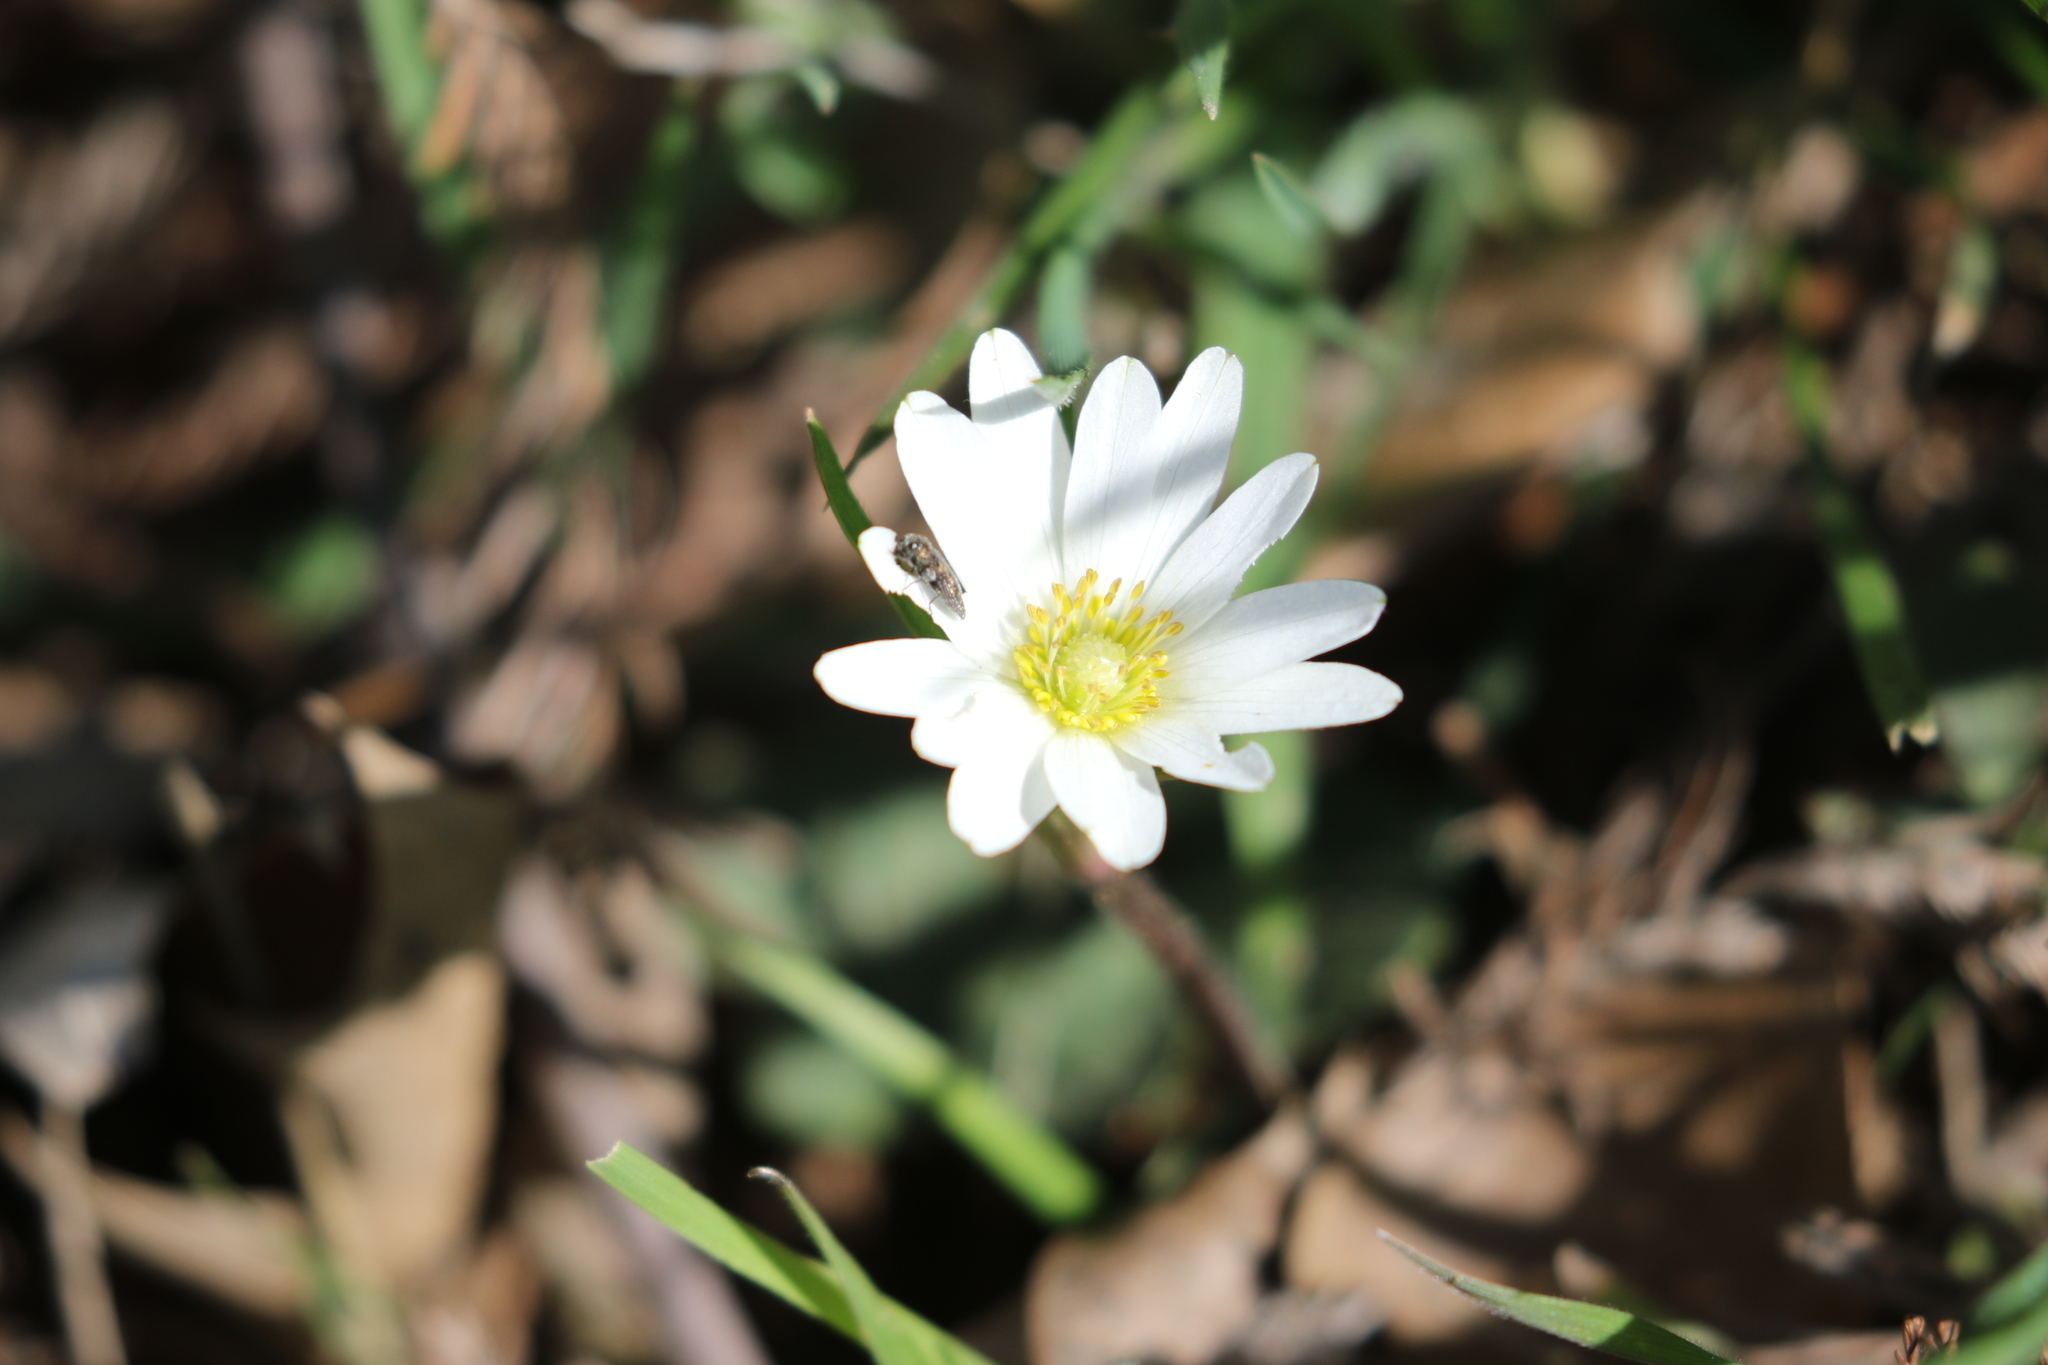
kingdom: Plantae
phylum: Tracheophyta
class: Magnoliopsida
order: Ranunculales
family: Ranunculaceae
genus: Anemone
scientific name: Anemone berlandieri
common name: Ten-petal anemone
